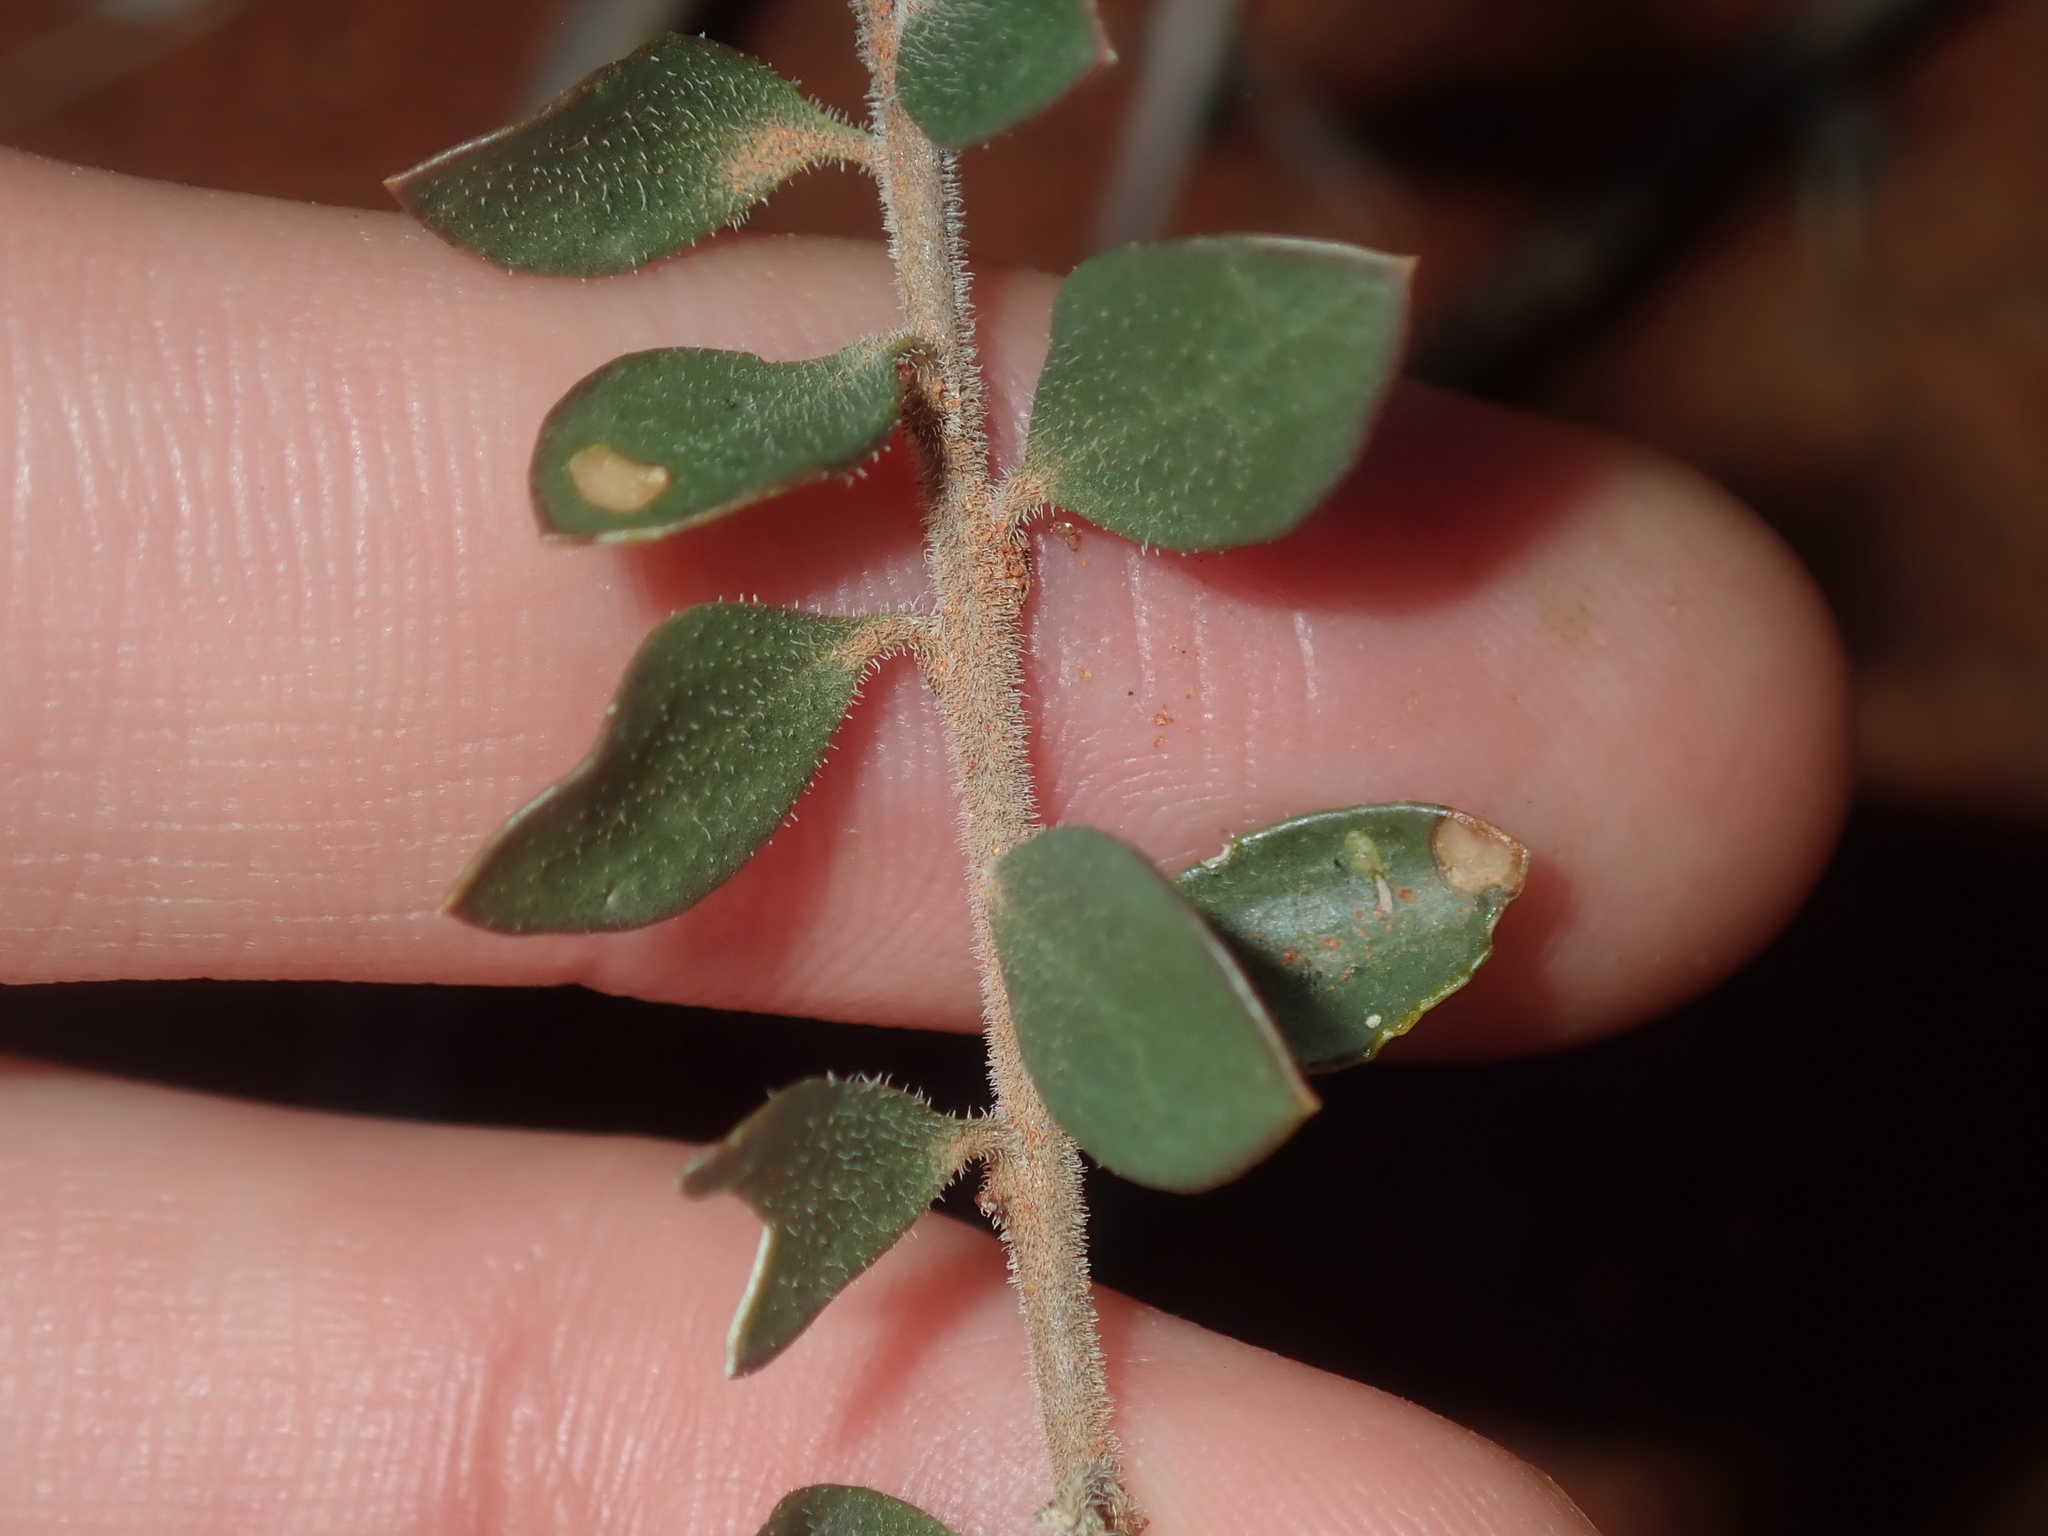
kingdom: Plantae
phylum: Tracheophyta
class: Magnoliopsida
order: Lamiales
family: Scrophulariaceae
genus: Eremophila
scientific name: Eremophila maculata
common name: Fuchsiabush
